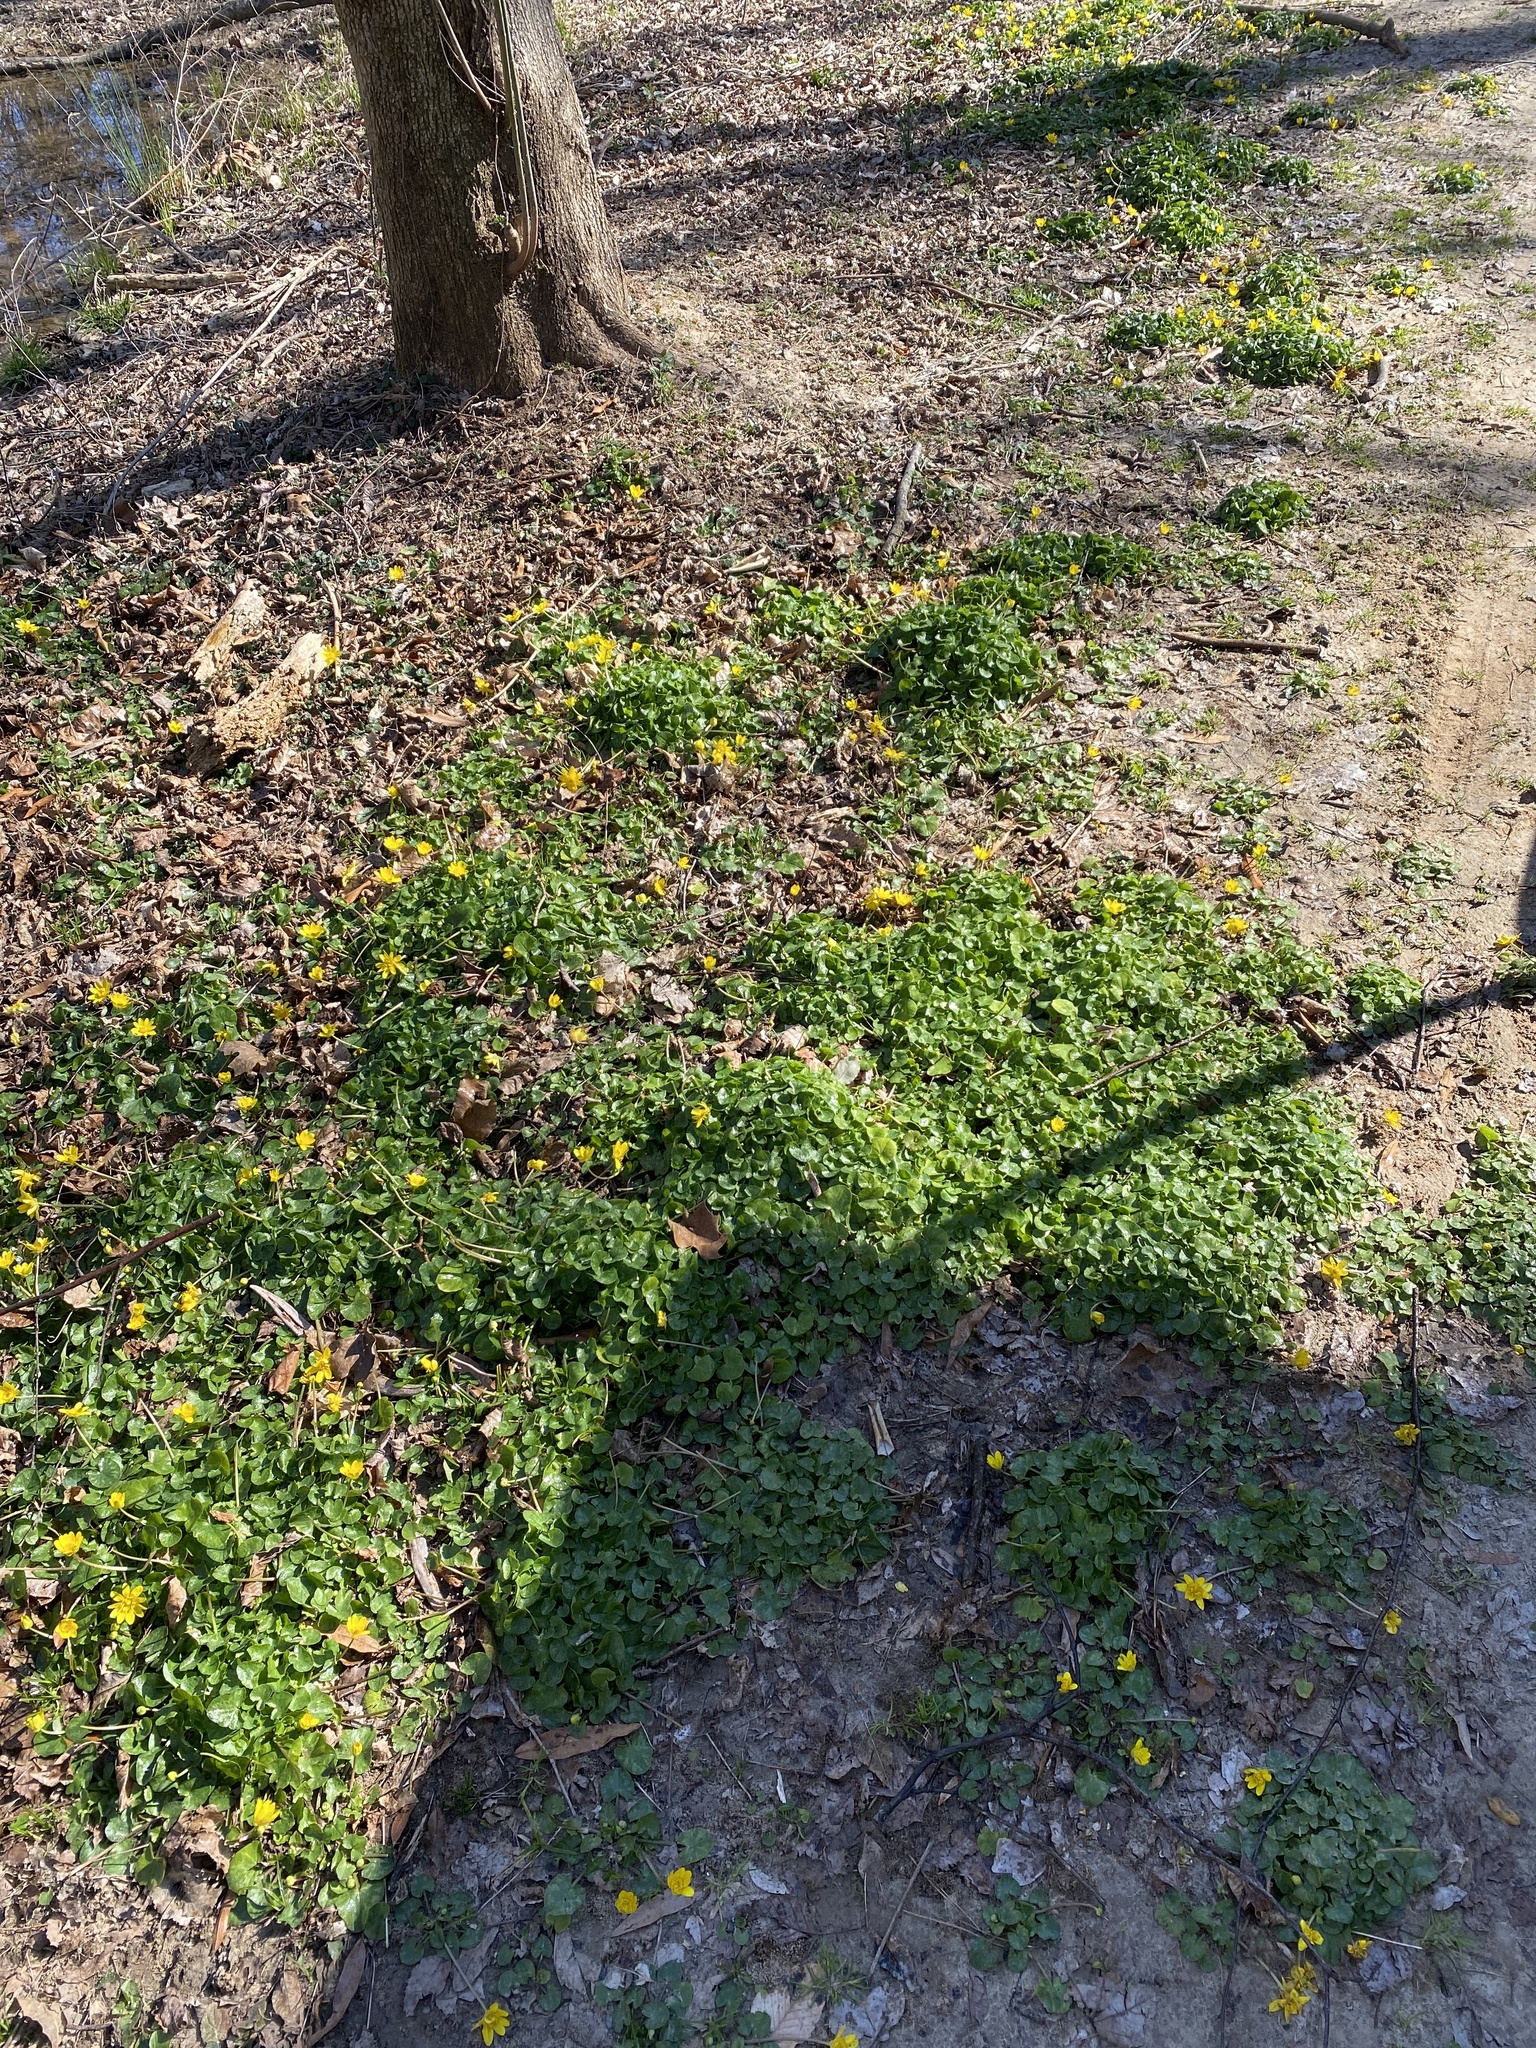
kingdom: Plantae
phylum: Tracheophyta
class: Magnoliopsida
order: Ranunculales
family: Ranunculaceae
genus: Ficaria
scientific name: Ficaria verna
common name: Lesser celandine
